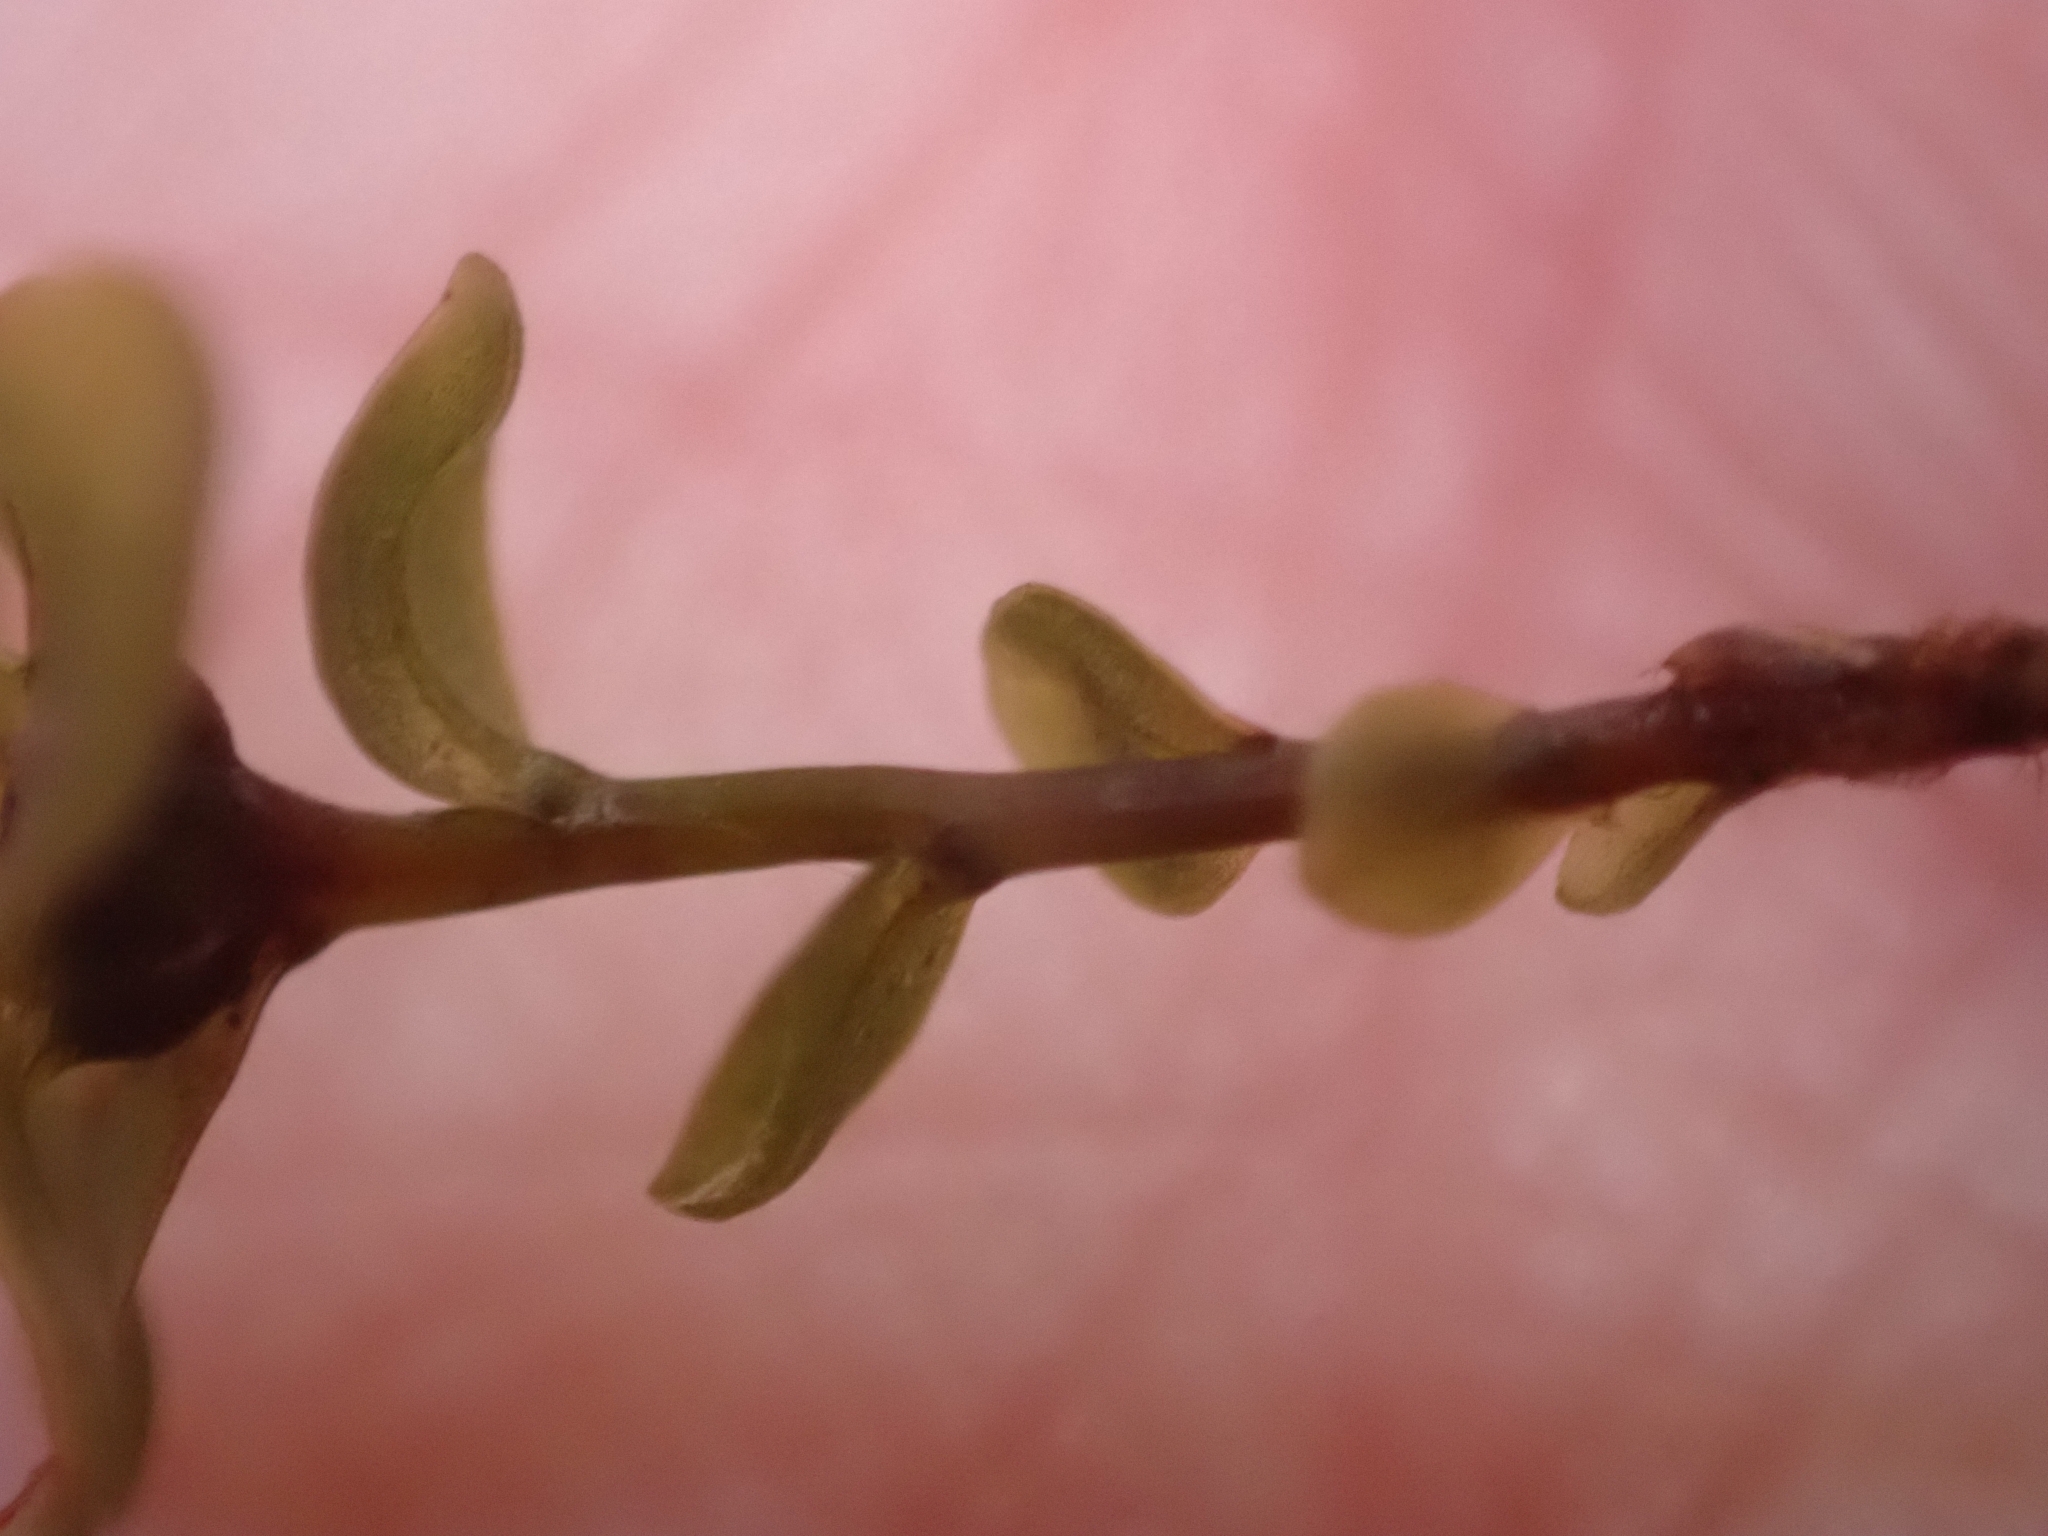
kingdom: Plantae
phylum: Bryophyta
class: Bryopsida
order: Bryales
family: Mniaceae
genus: Rhizomnium
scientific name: Rhizomnium punctatum
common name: Dotted leafy moss
